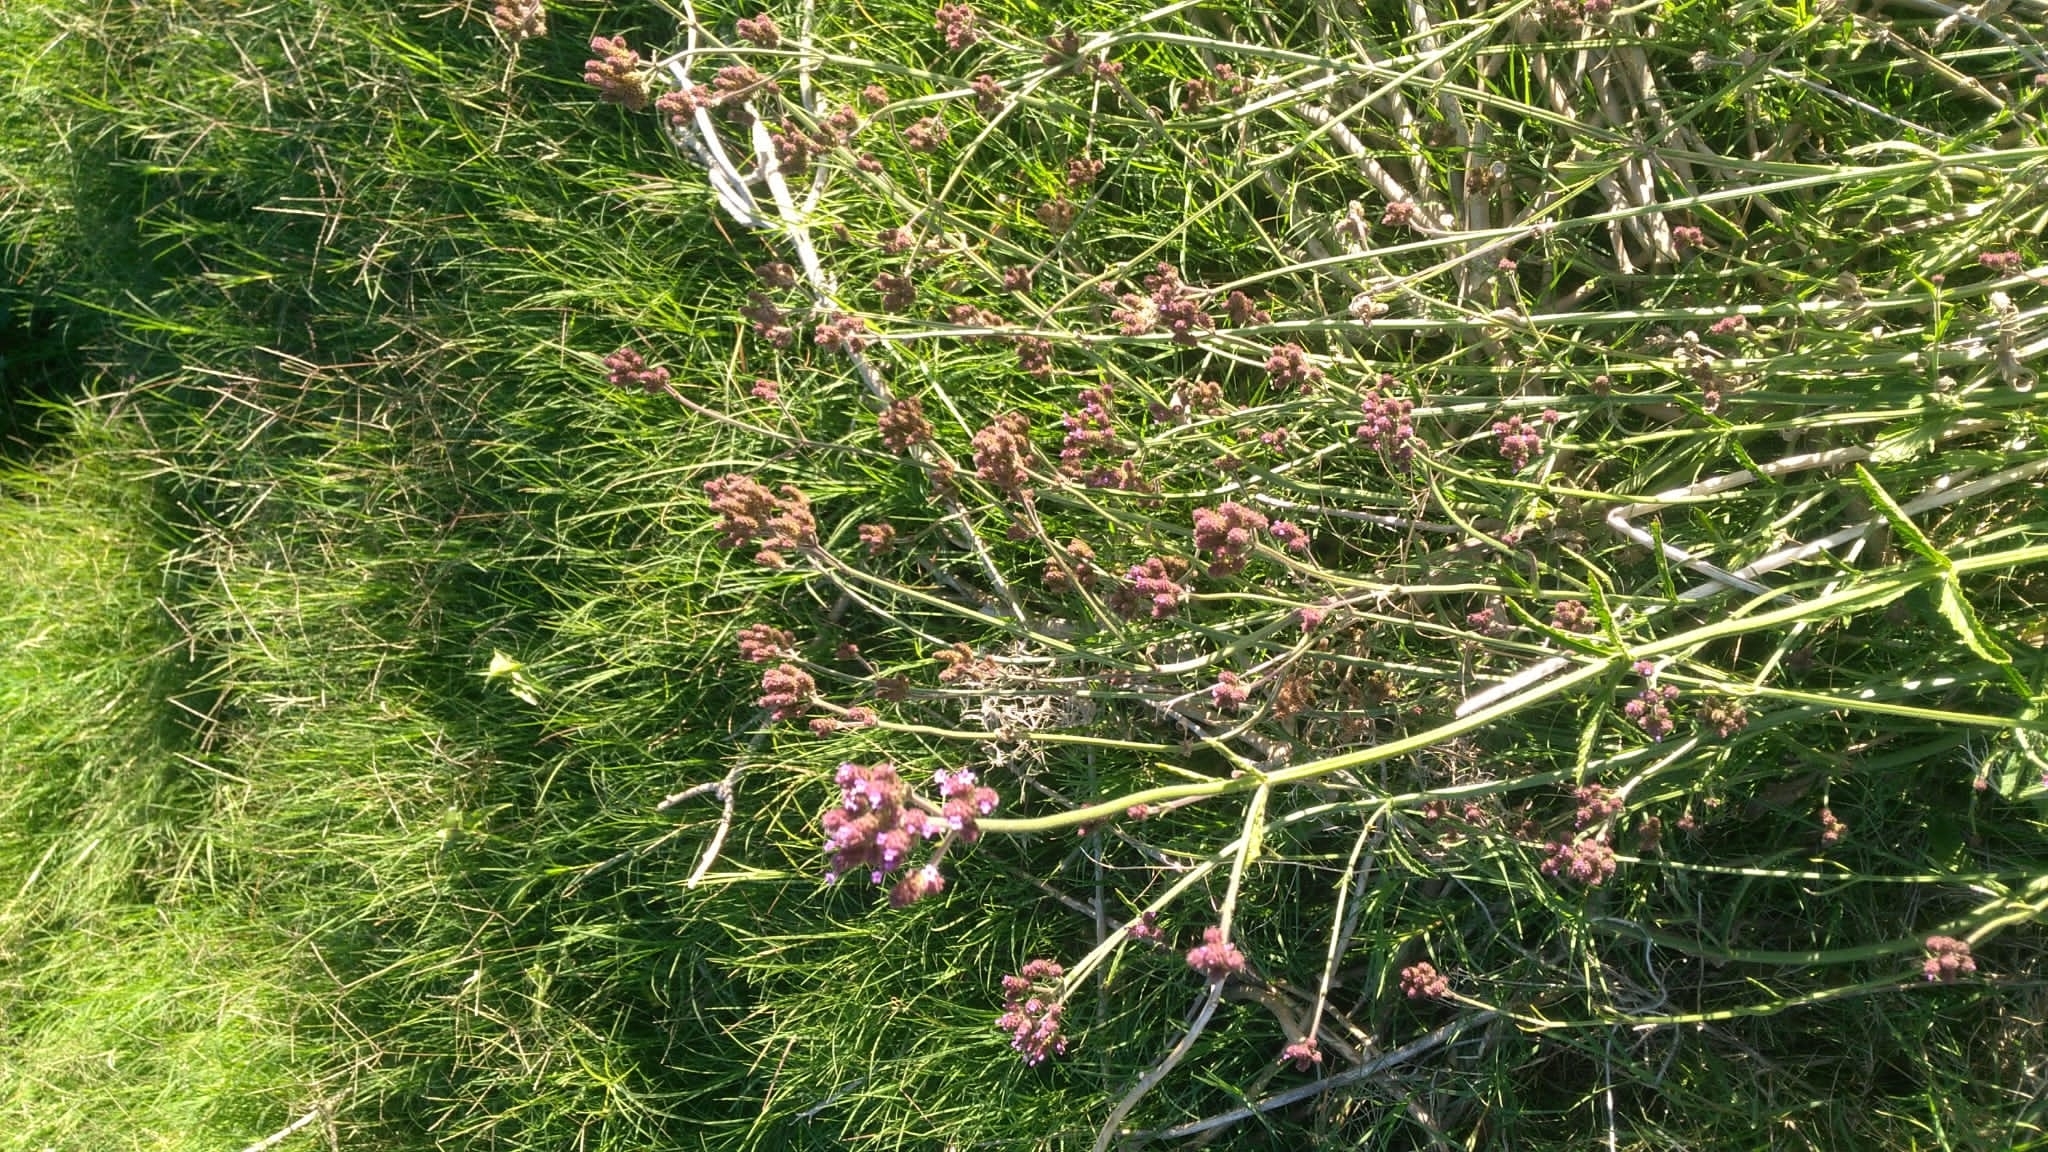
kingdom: Plantae
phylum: Tracheophyta
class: Magnoliopsida
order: Lamiales
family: Verbenaceae
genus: Verbena
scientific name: Verbena bonariensis
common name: Purpletop vervain
